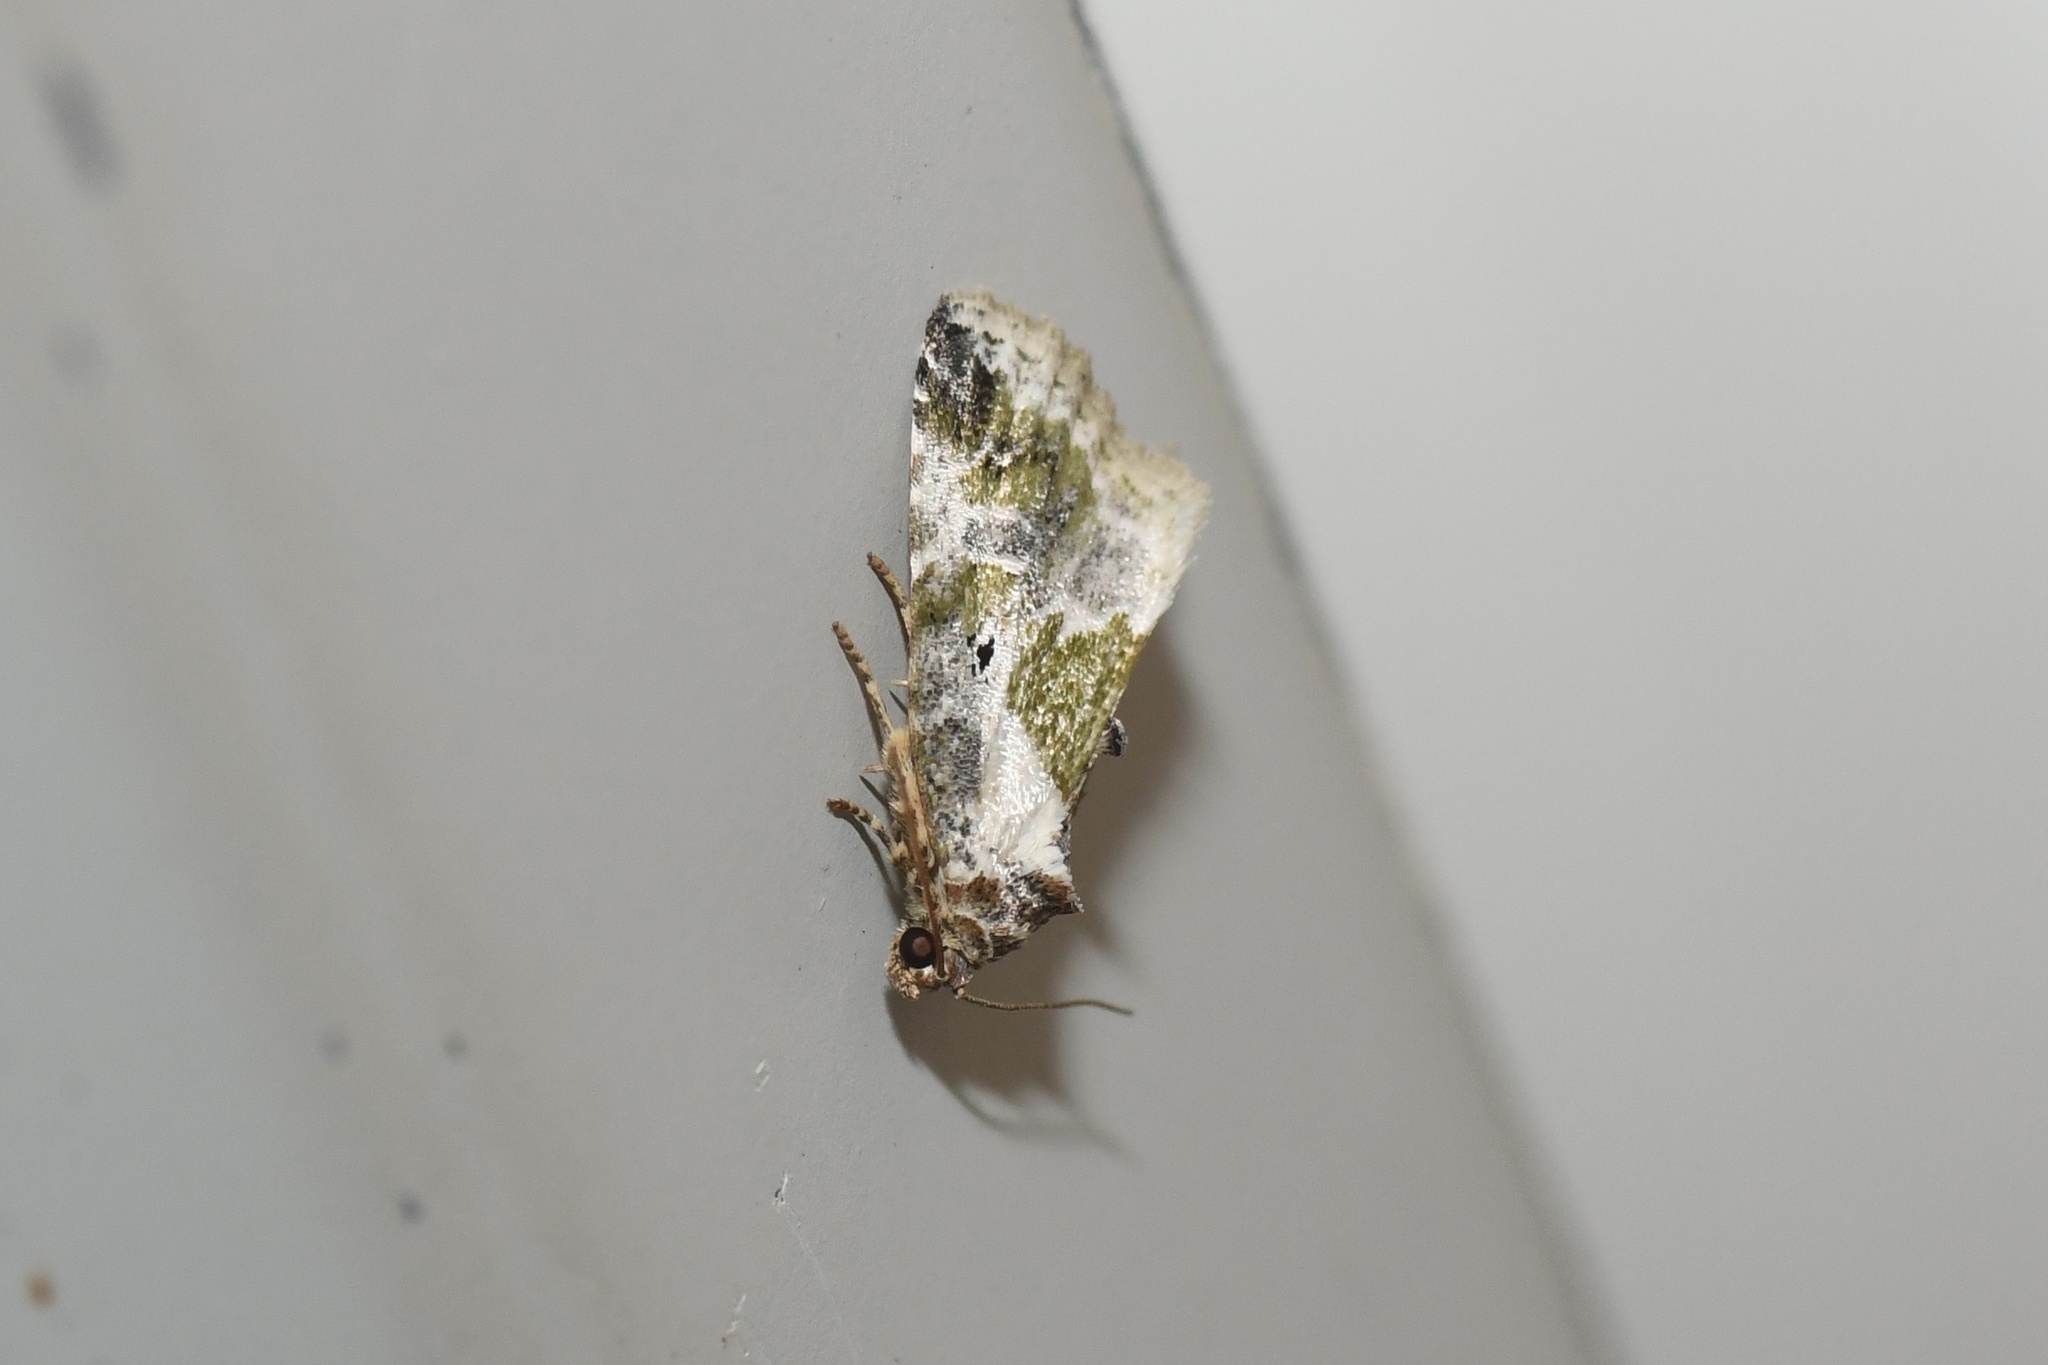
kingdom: Animalia
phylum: Arthropoda
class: Insecta
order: Lepidoptera
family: Noctuidae
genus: Maliattha
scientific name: Maliattha synochitis
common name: Black-dotted glyph
